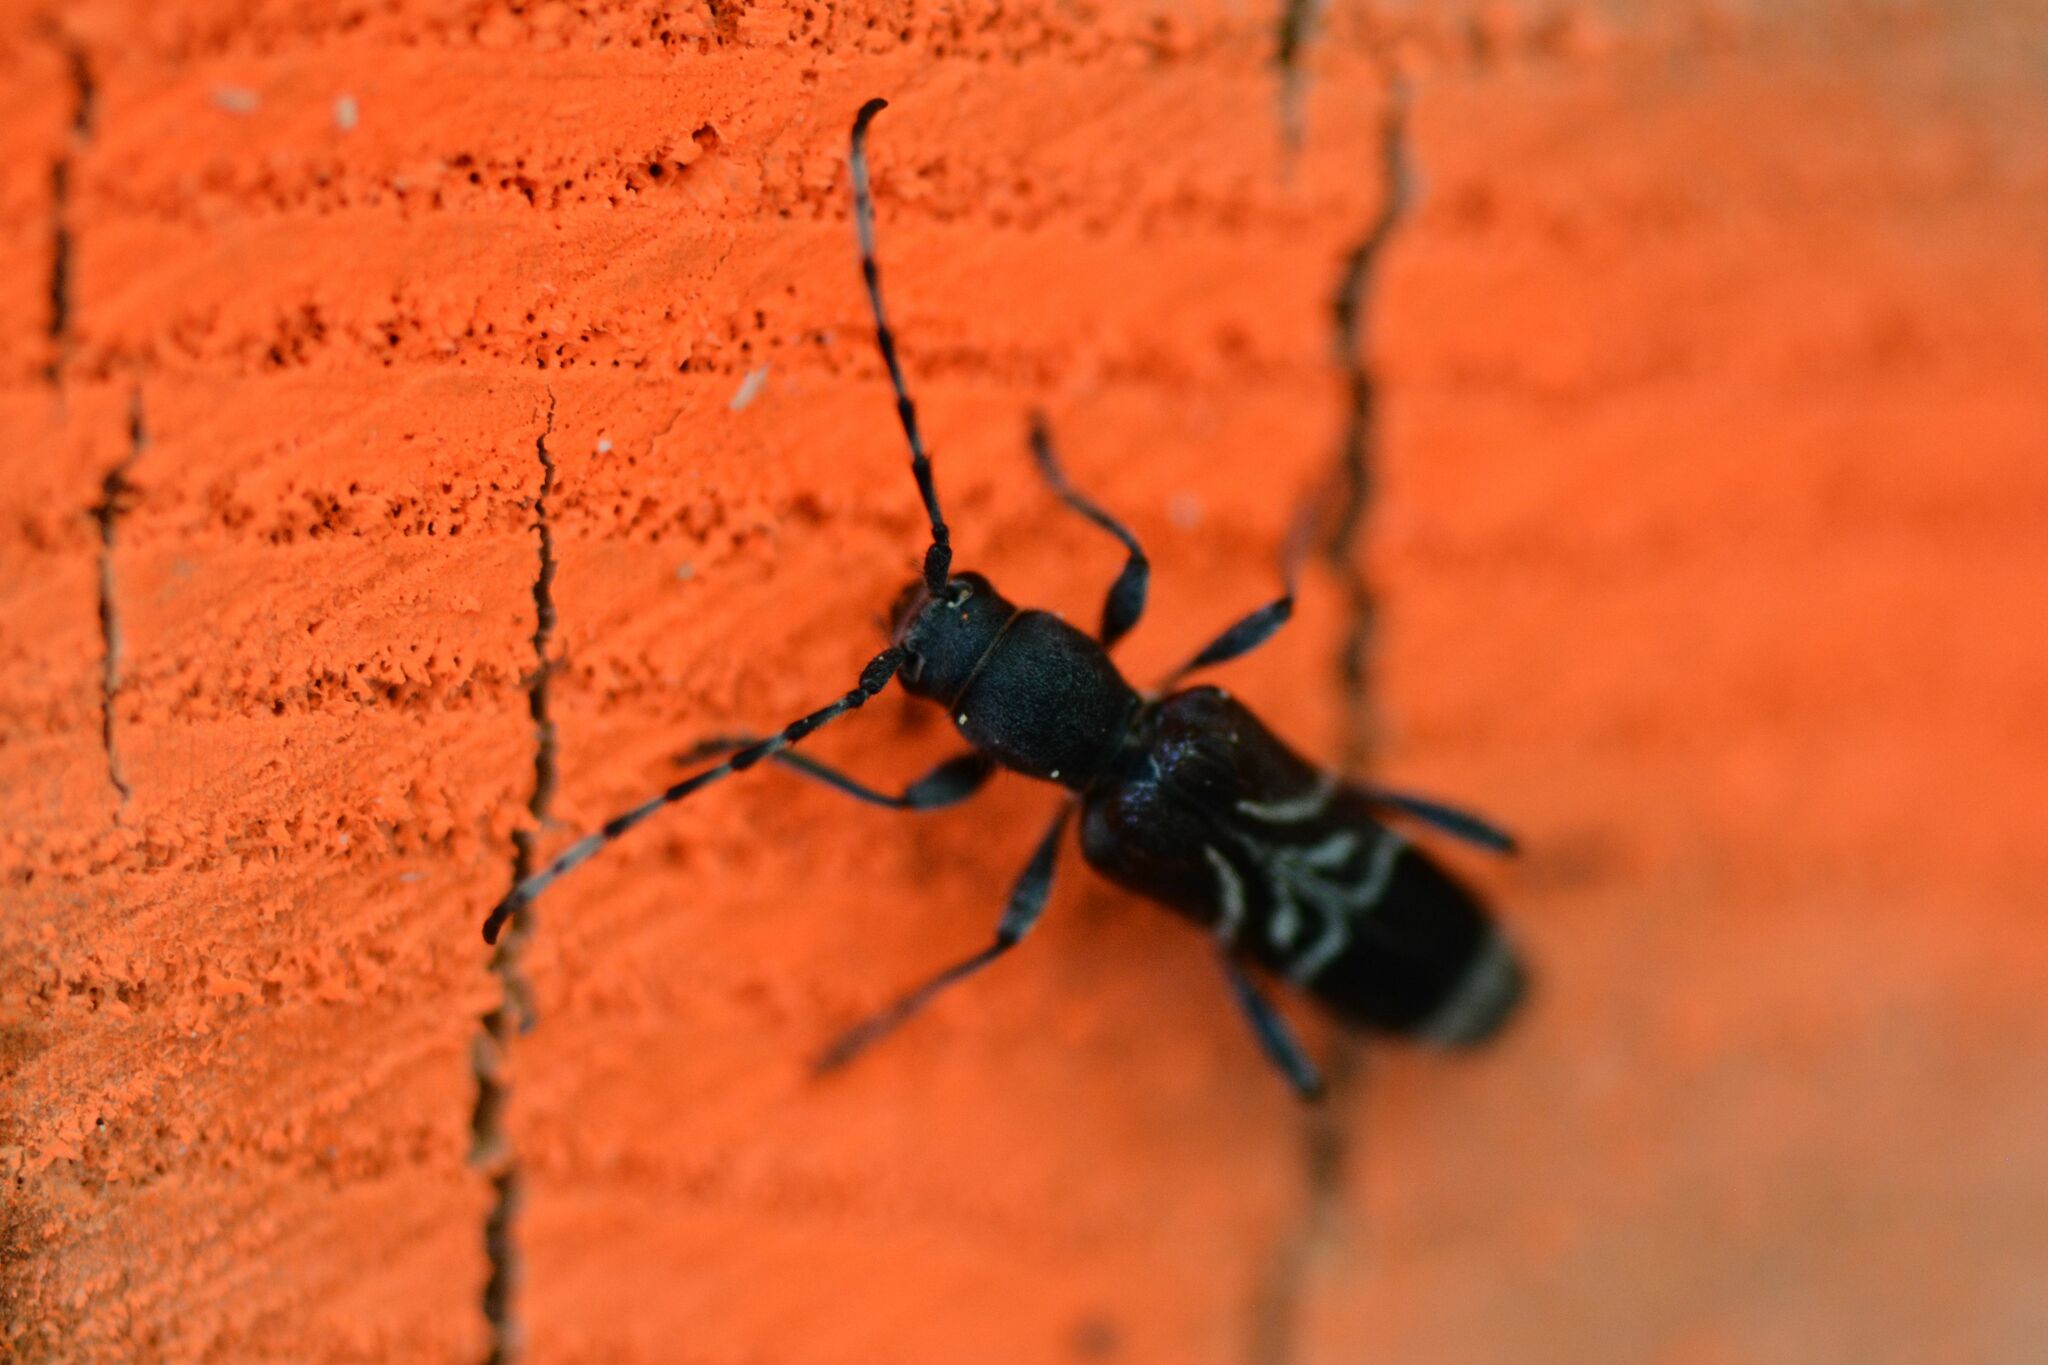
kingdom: Animalia
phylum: Arthropoda
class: Insecta
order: Coleoptera
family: Cerambycidae
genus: Anaglyptus
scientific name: Anaglyptus mysticus
